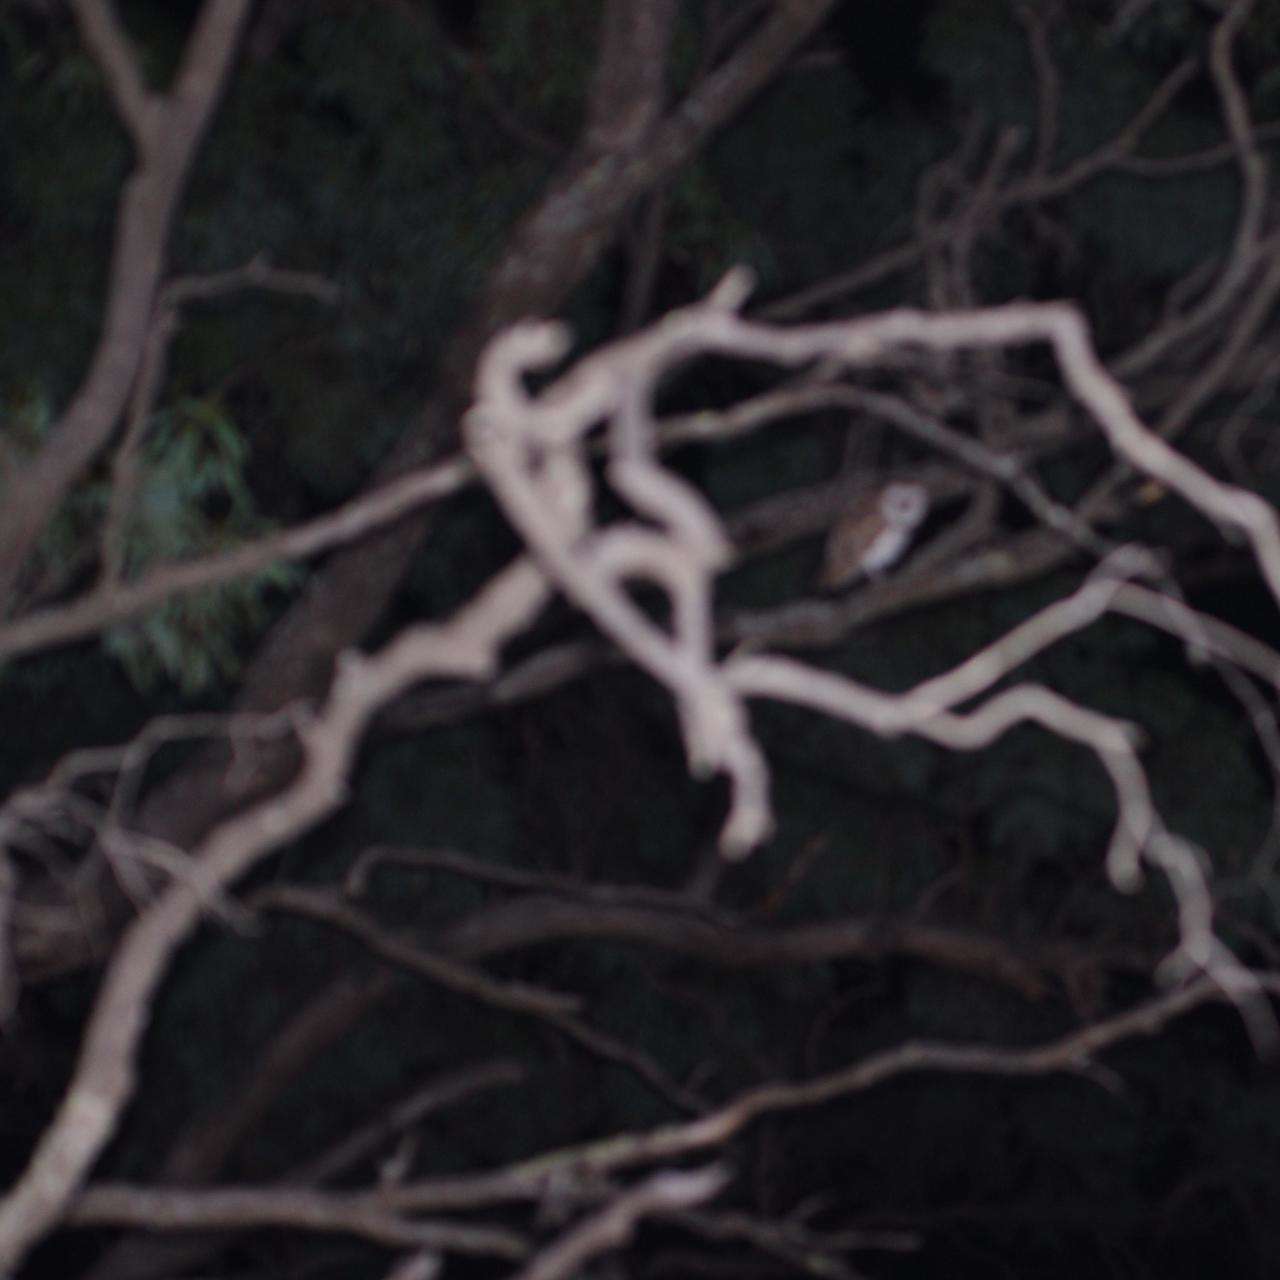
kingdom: Animalia
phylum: Chordata
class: Aves
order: Strigiformes
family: Tytonidae
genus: Tyto
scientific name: Tyto alba
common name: Barn owl
